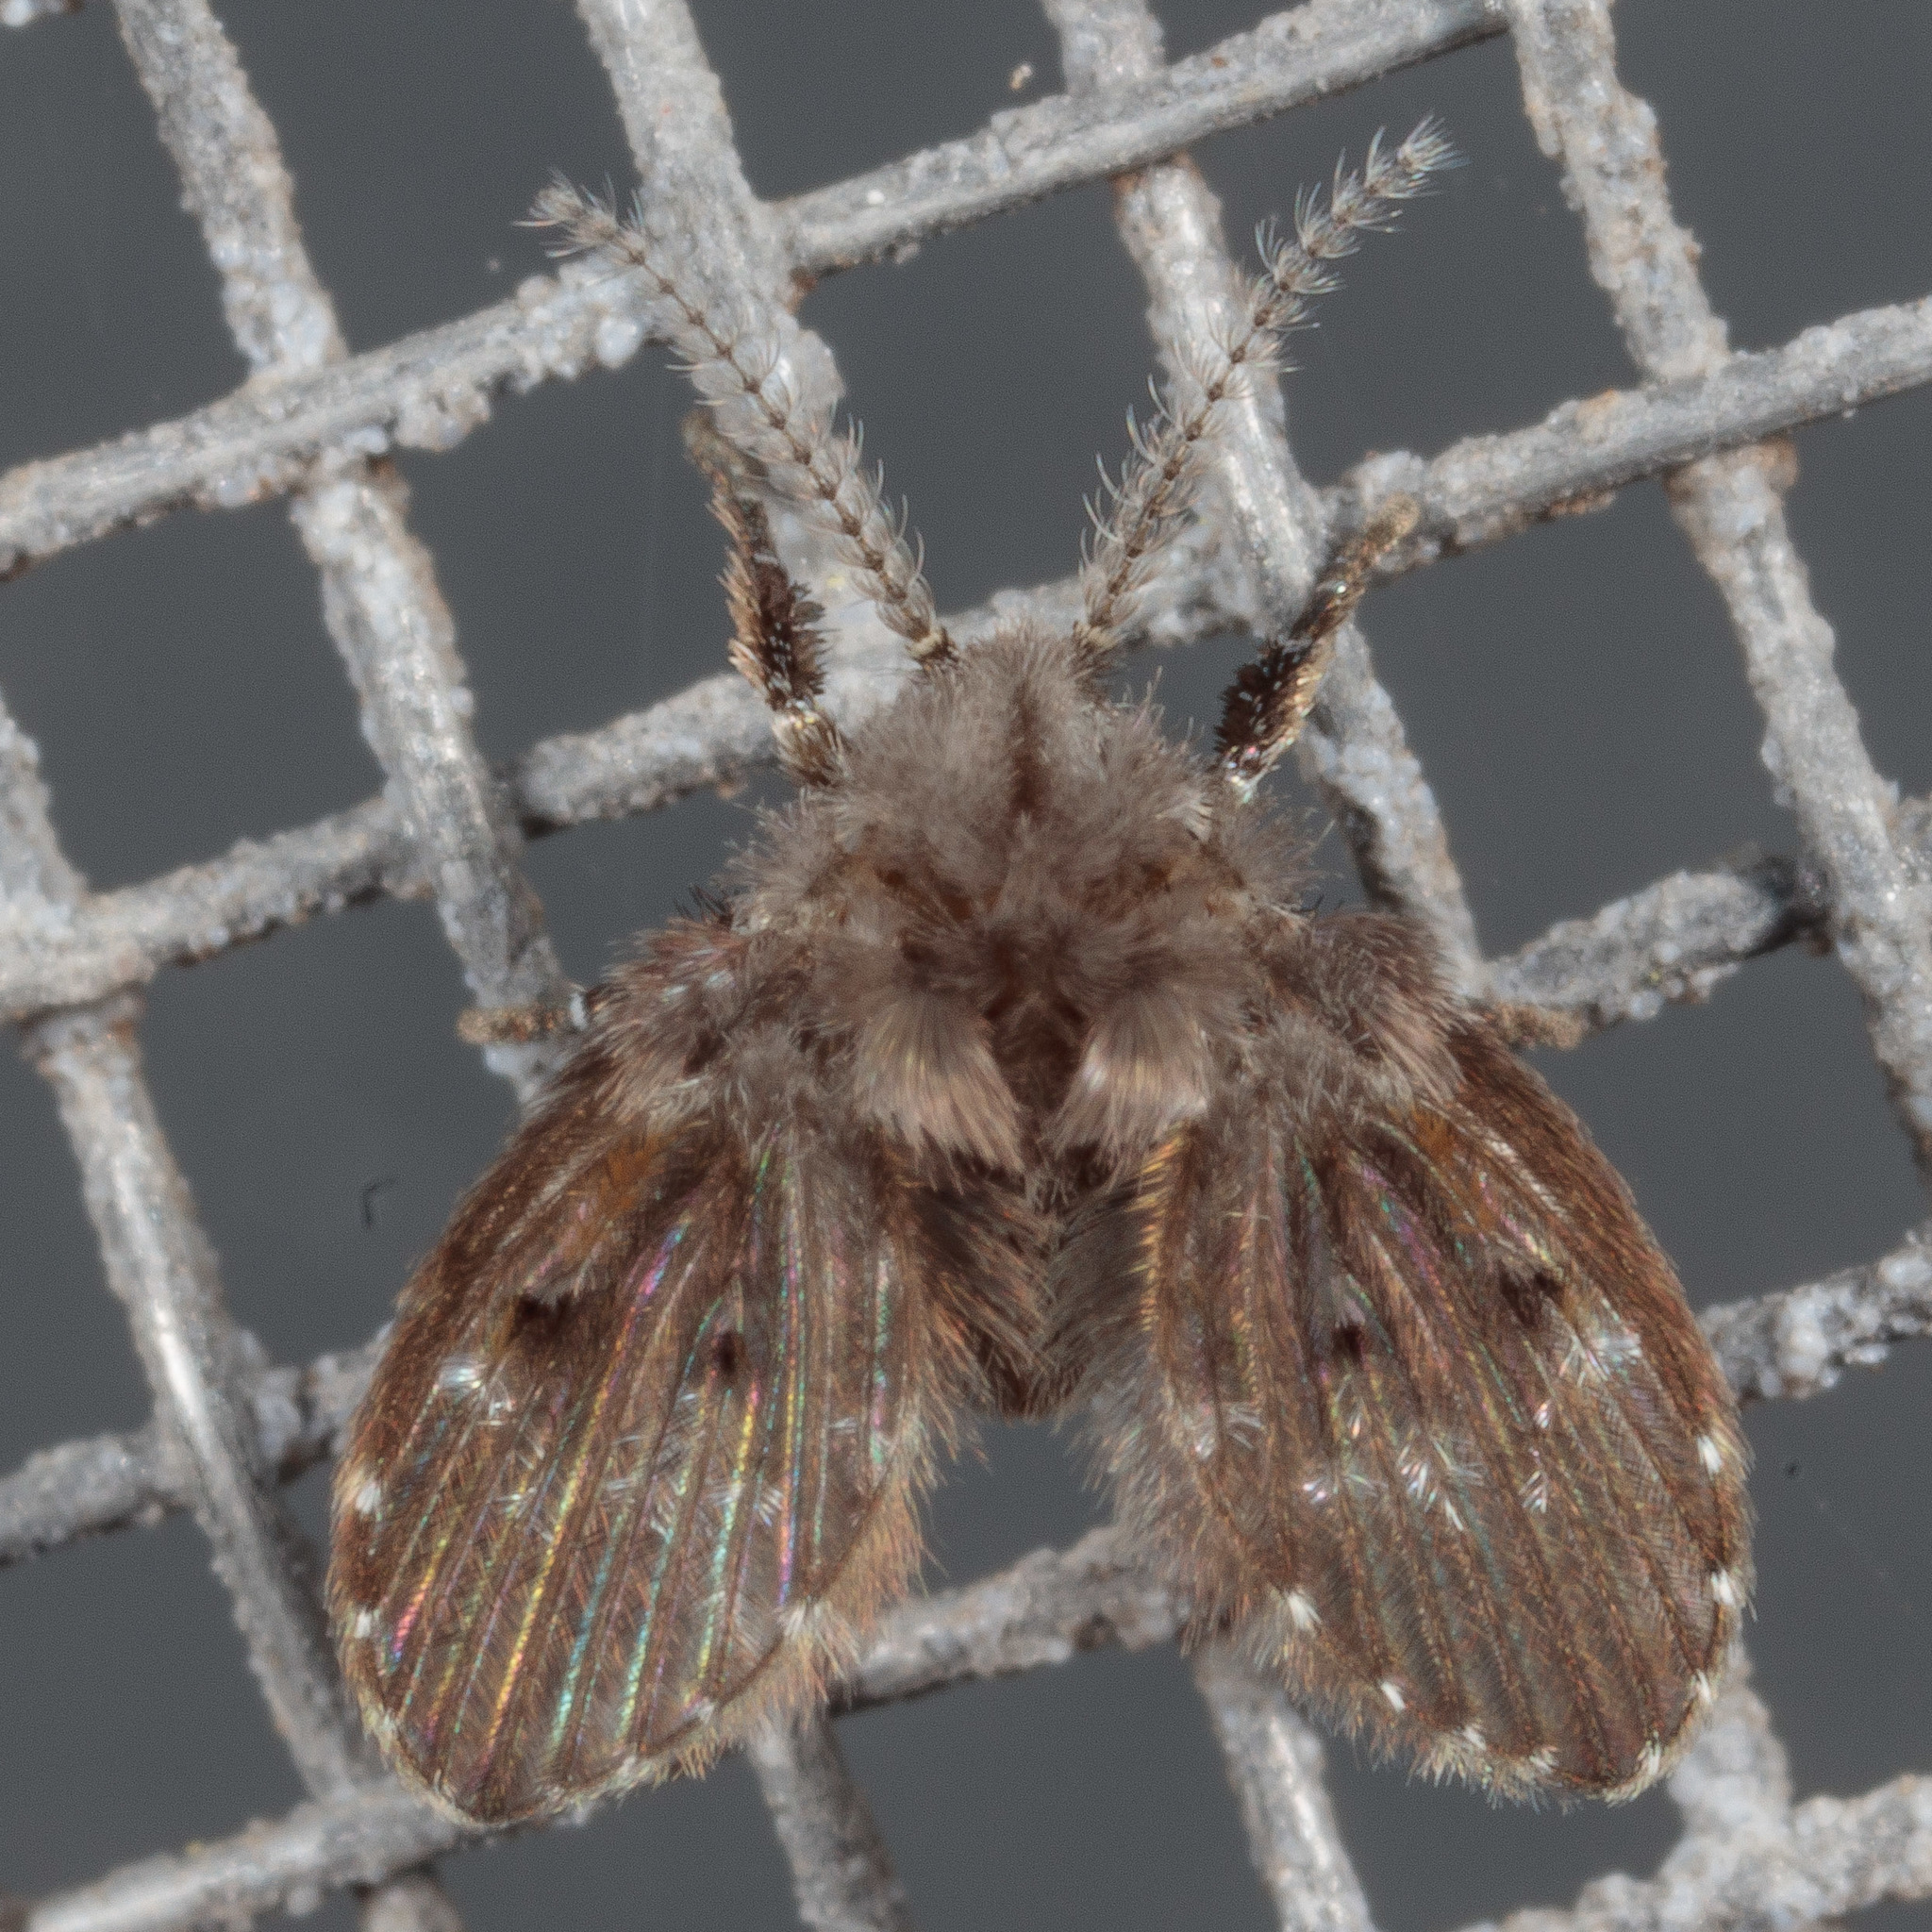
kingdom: Animalia
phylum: Arthropoda
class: Insecta
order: Diptera
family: Psychodidae
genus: Clogmia
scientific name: Clogmia albipunctatus
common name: White-spotted moth fly
